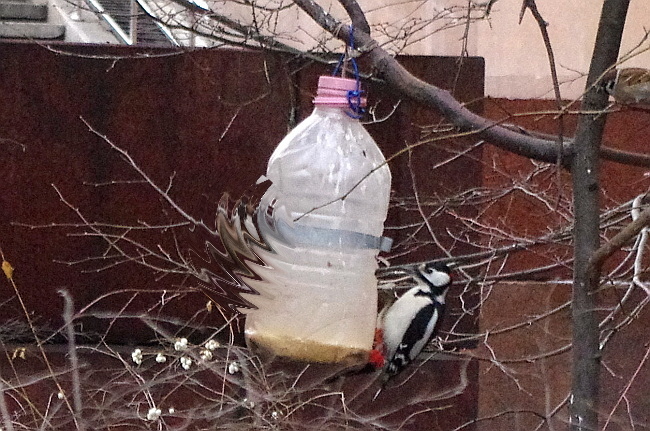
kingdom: Animalia
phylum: Chordata
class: Aves
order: Piciformes
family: Picidae
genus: Dendrocopos
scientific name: Dendrocopos major
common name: Great spotted woodpecker
